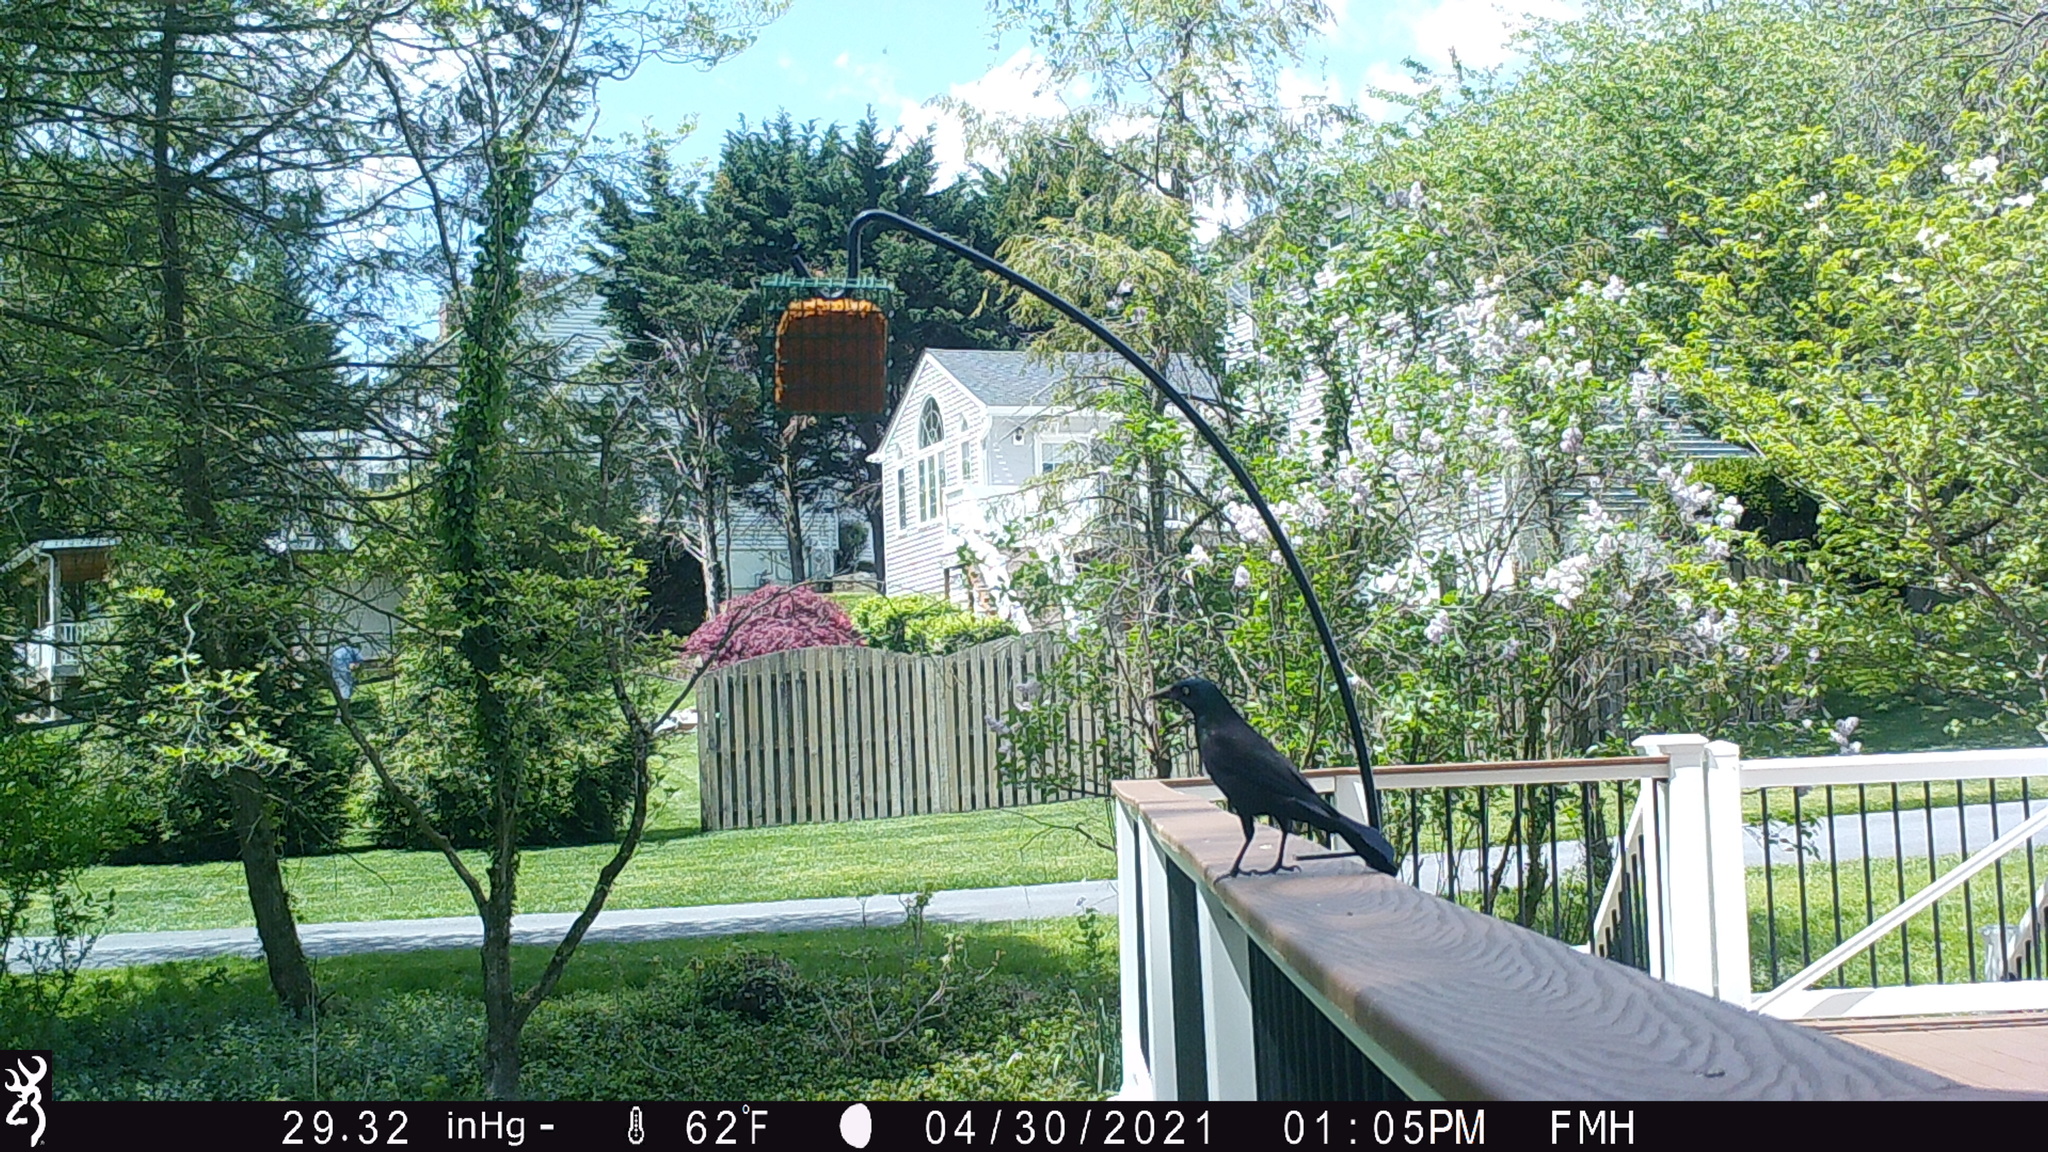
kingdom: Animalia
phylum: Chordata
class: Aves
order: Passeriformes
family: Icteridae
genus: Quiscalus
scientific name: Quiscalus quiscula
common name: Common grackle
